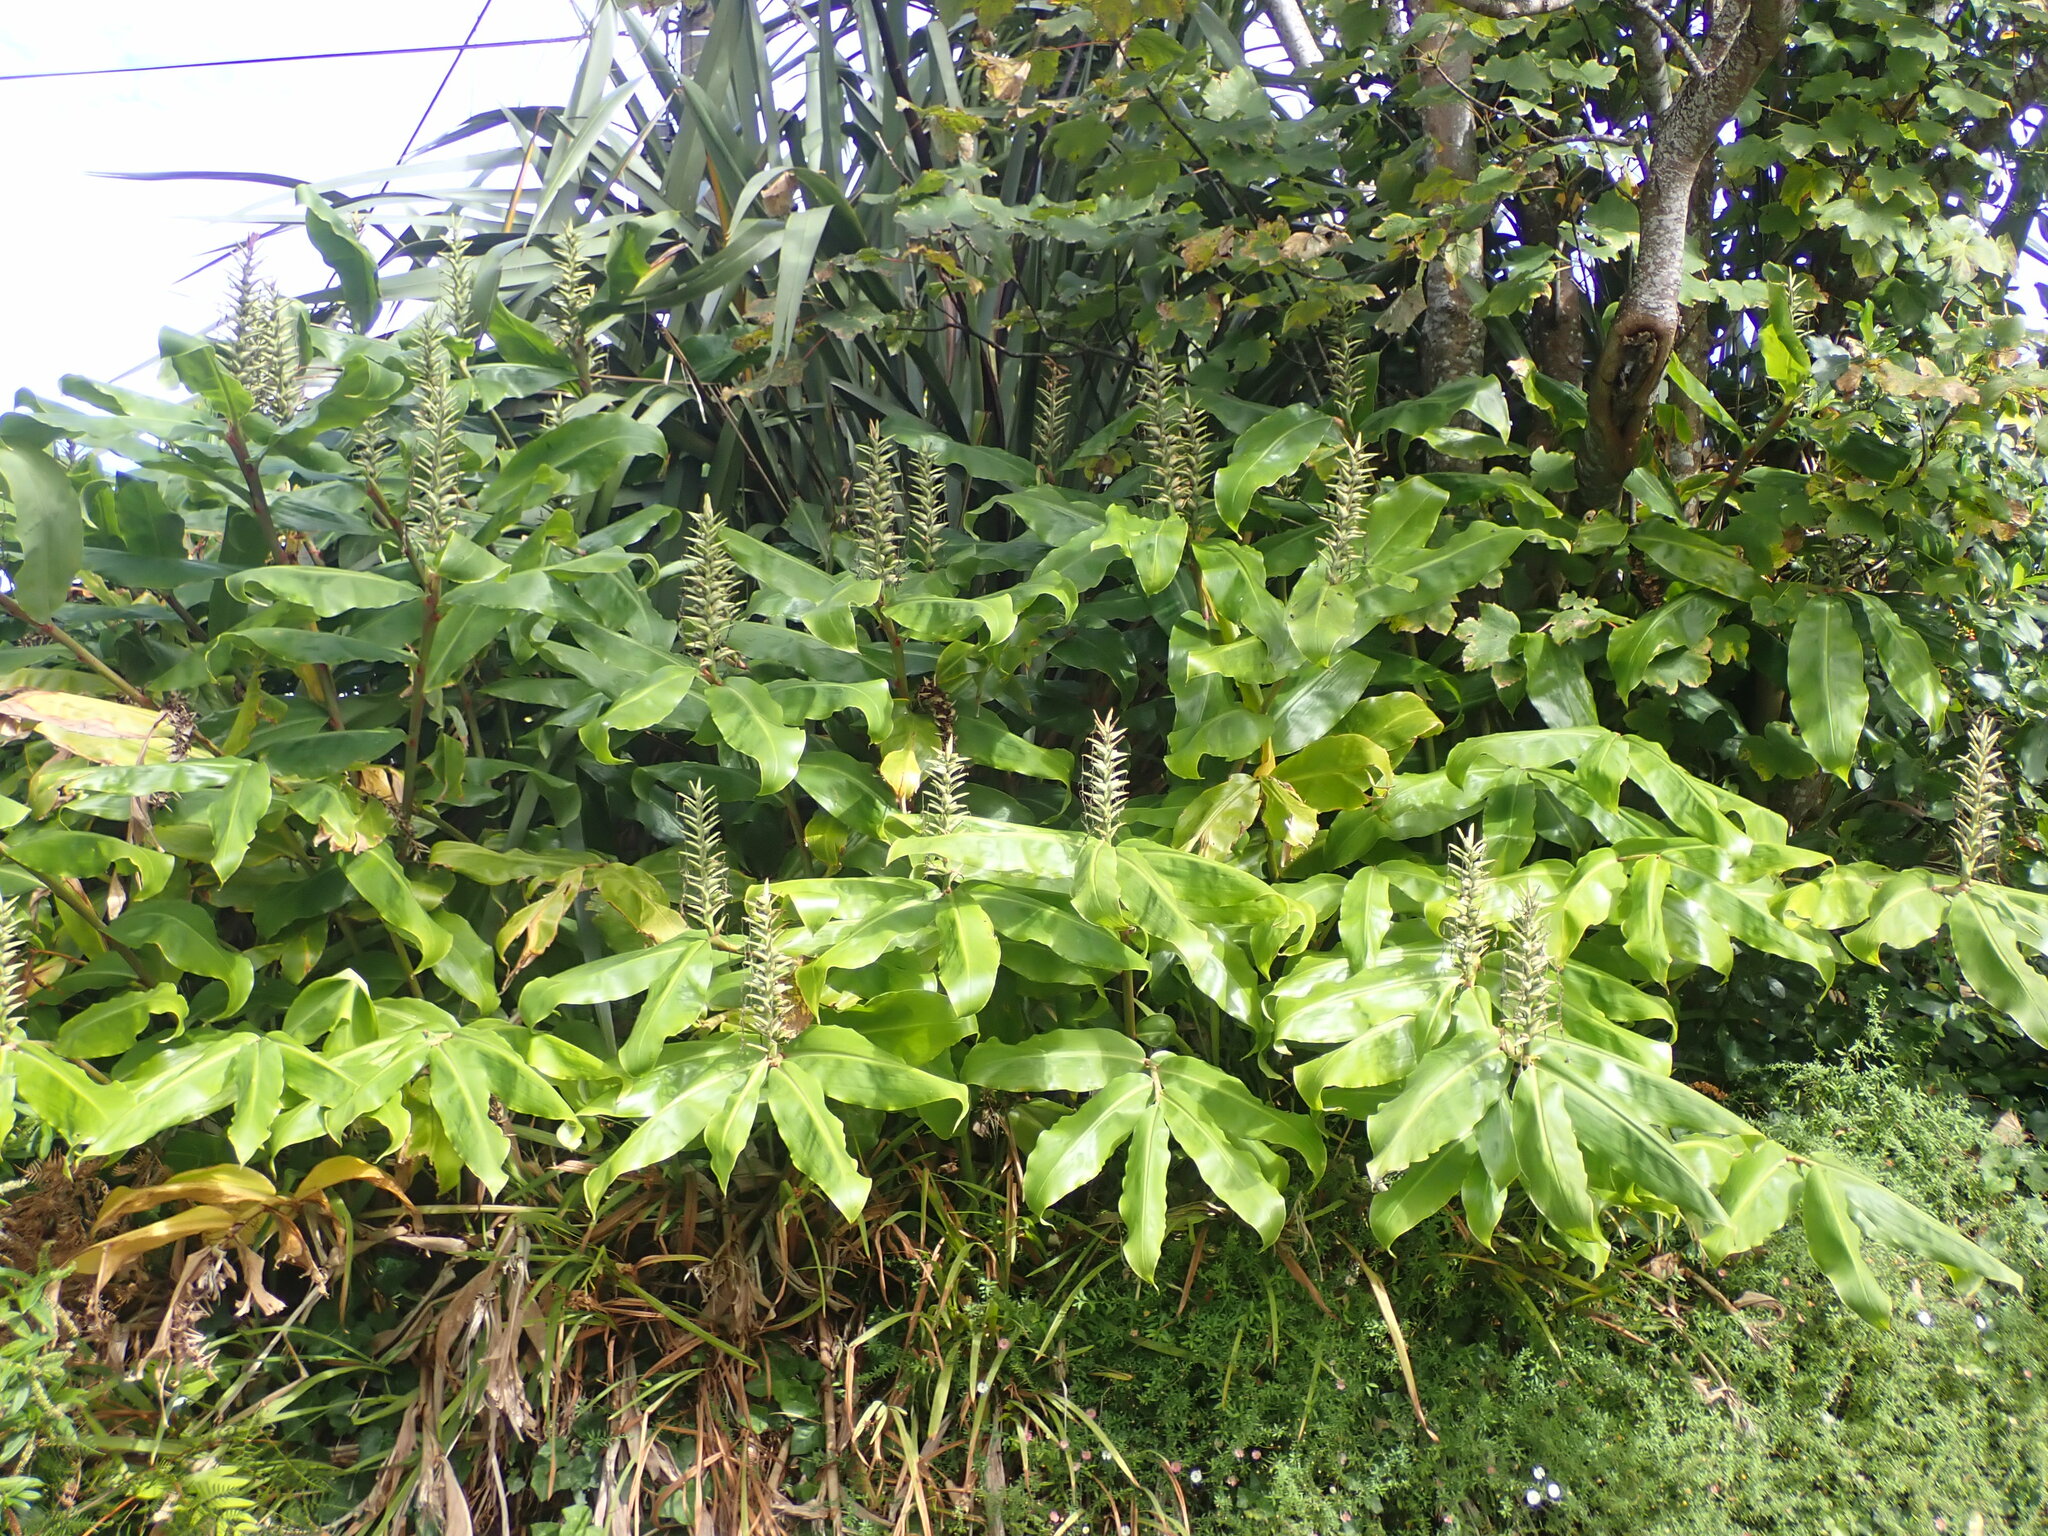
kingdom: Plantae
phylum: Tracheophyta
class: Liliopsida
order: Zingiberales
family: Zingiberaceae
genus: Hedychium
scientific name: Hedychium gardnerianum
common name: Himalayan ginger
